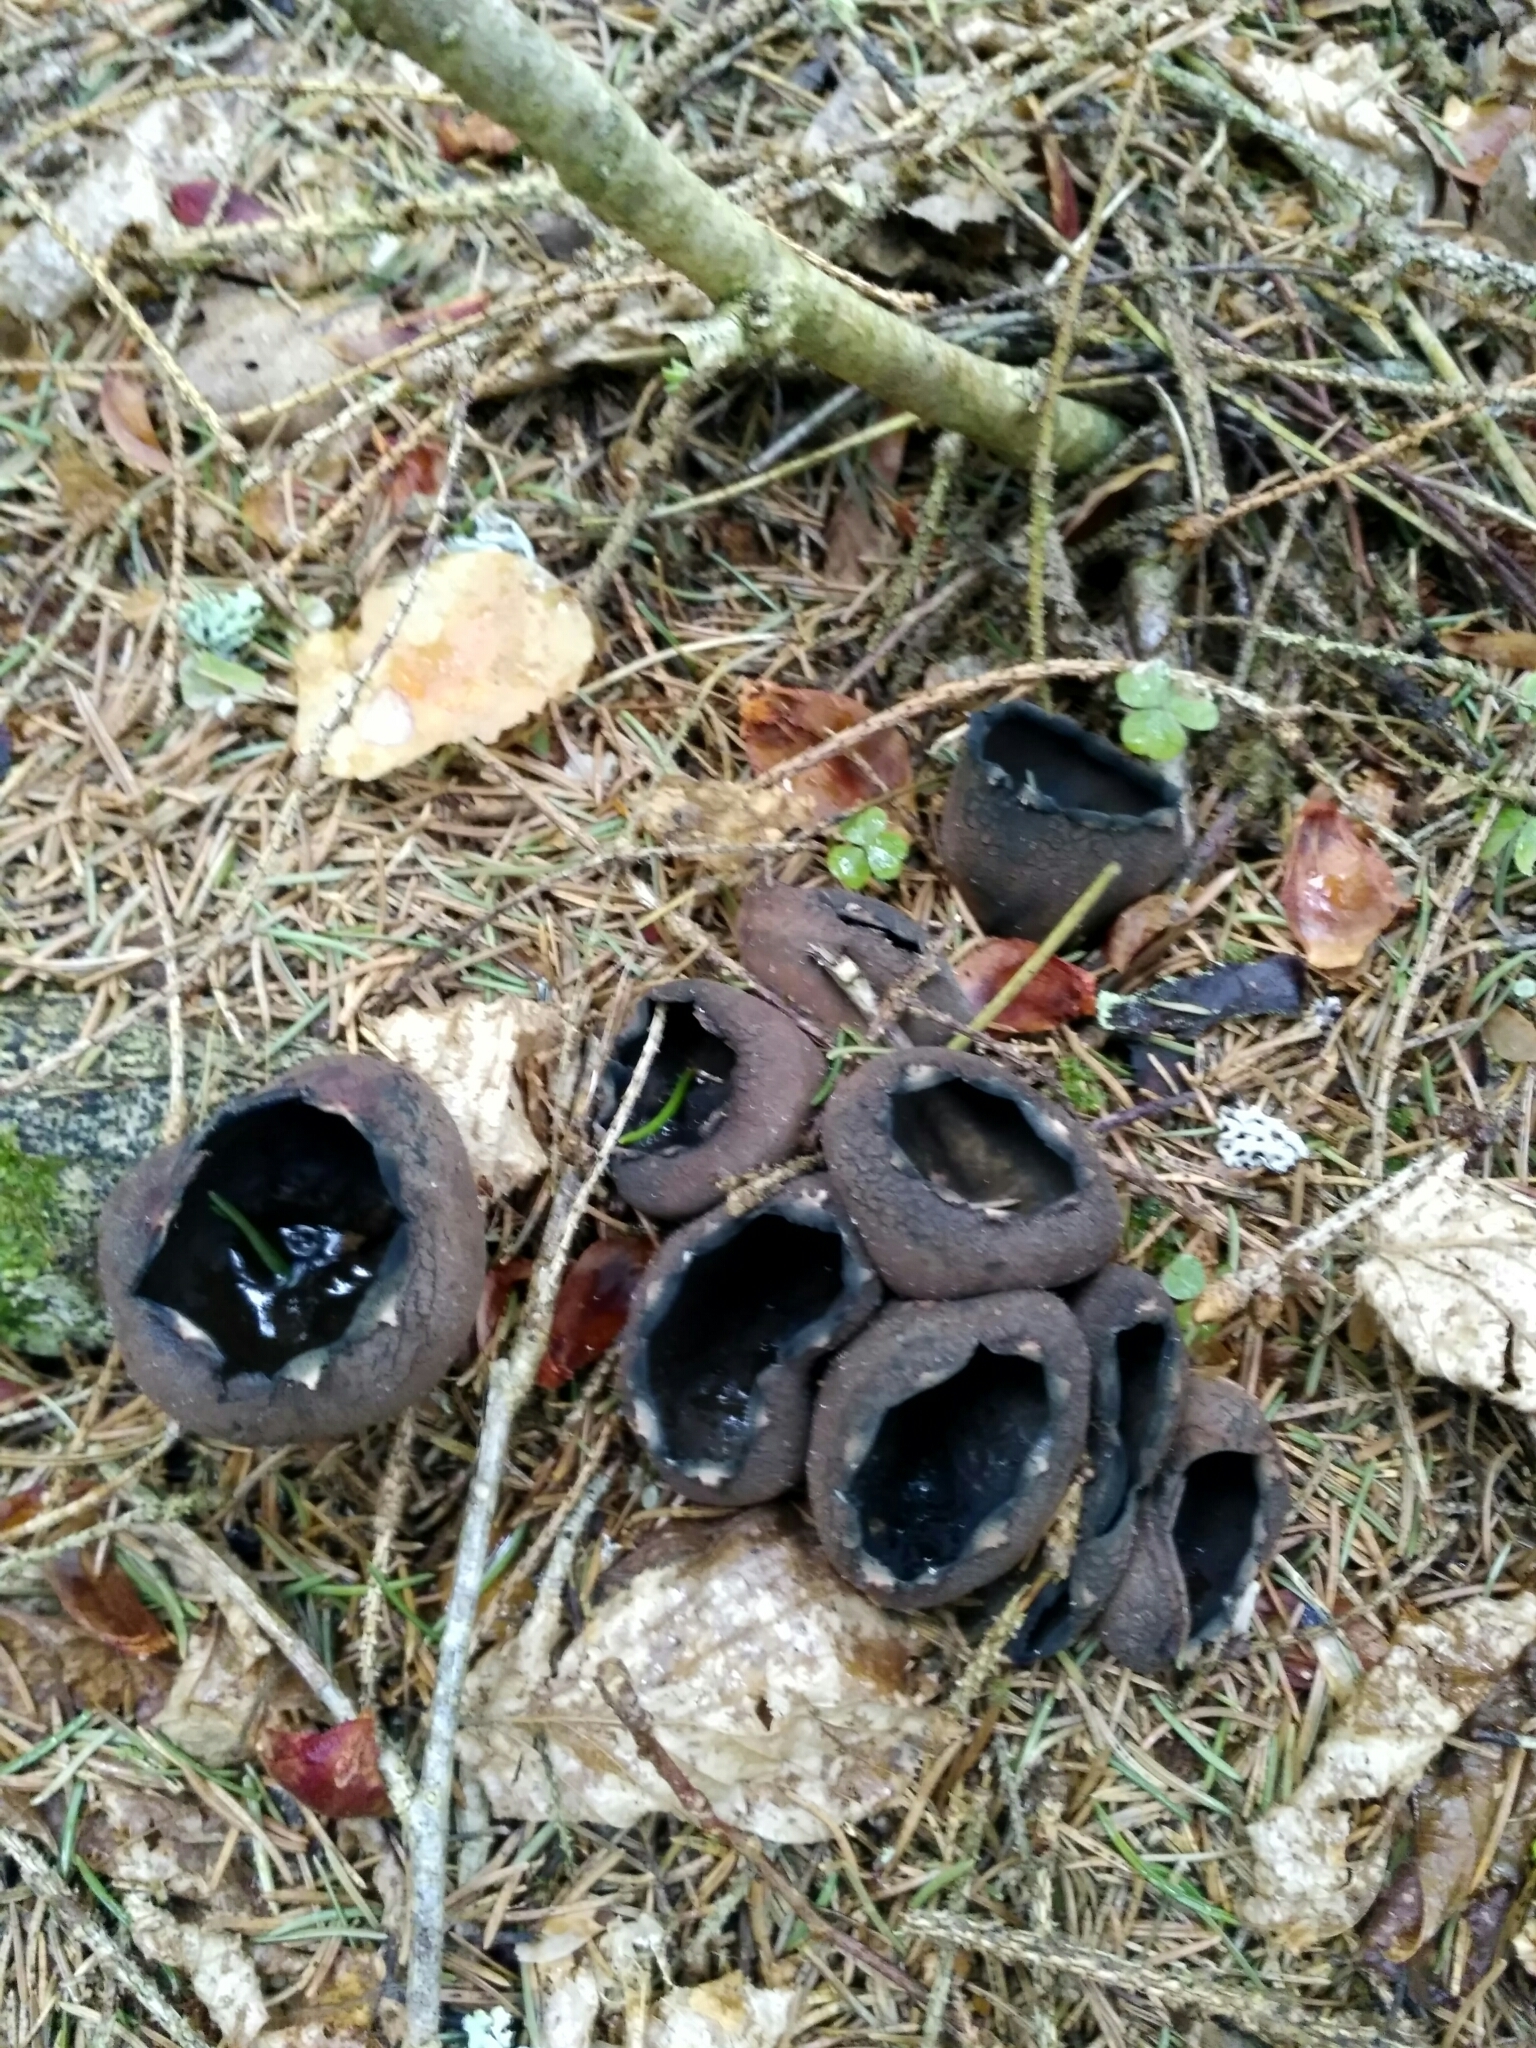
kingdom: Fungi
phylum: Ascomycota
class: Pezizomycetes
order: Pezizales
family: Sarcosomataceae
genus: Urnula
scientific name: Urnula craterium
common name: Devil's urn
